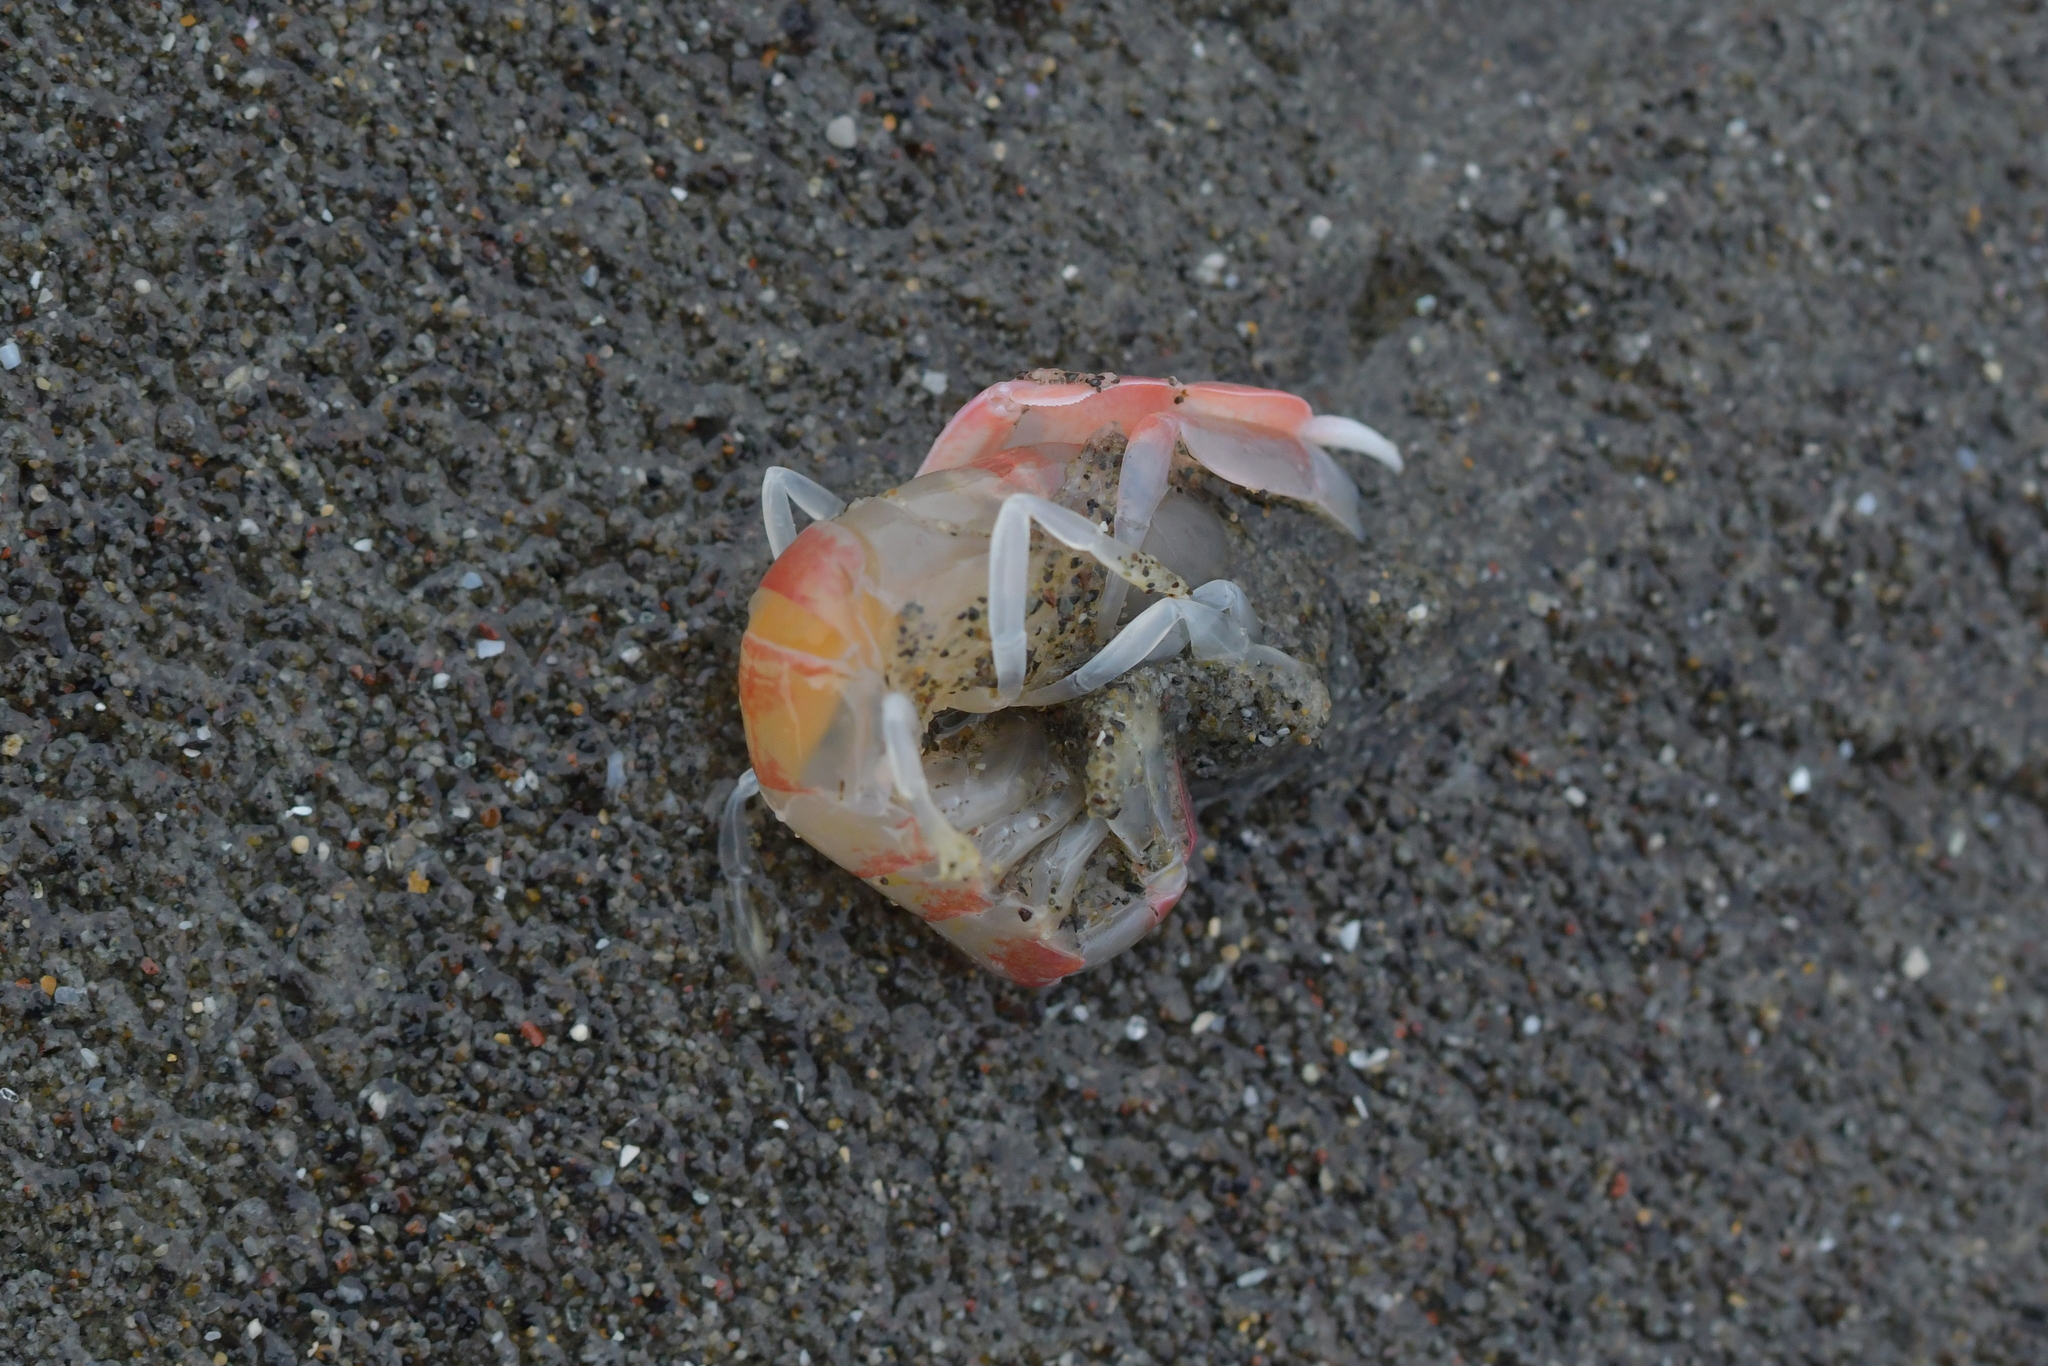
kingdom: Animalia
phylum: Arthropoda
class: Malacostraca
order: Decapoda
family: Callianassidae
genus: Filhollianassa
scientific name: Filhollianassa filholi
